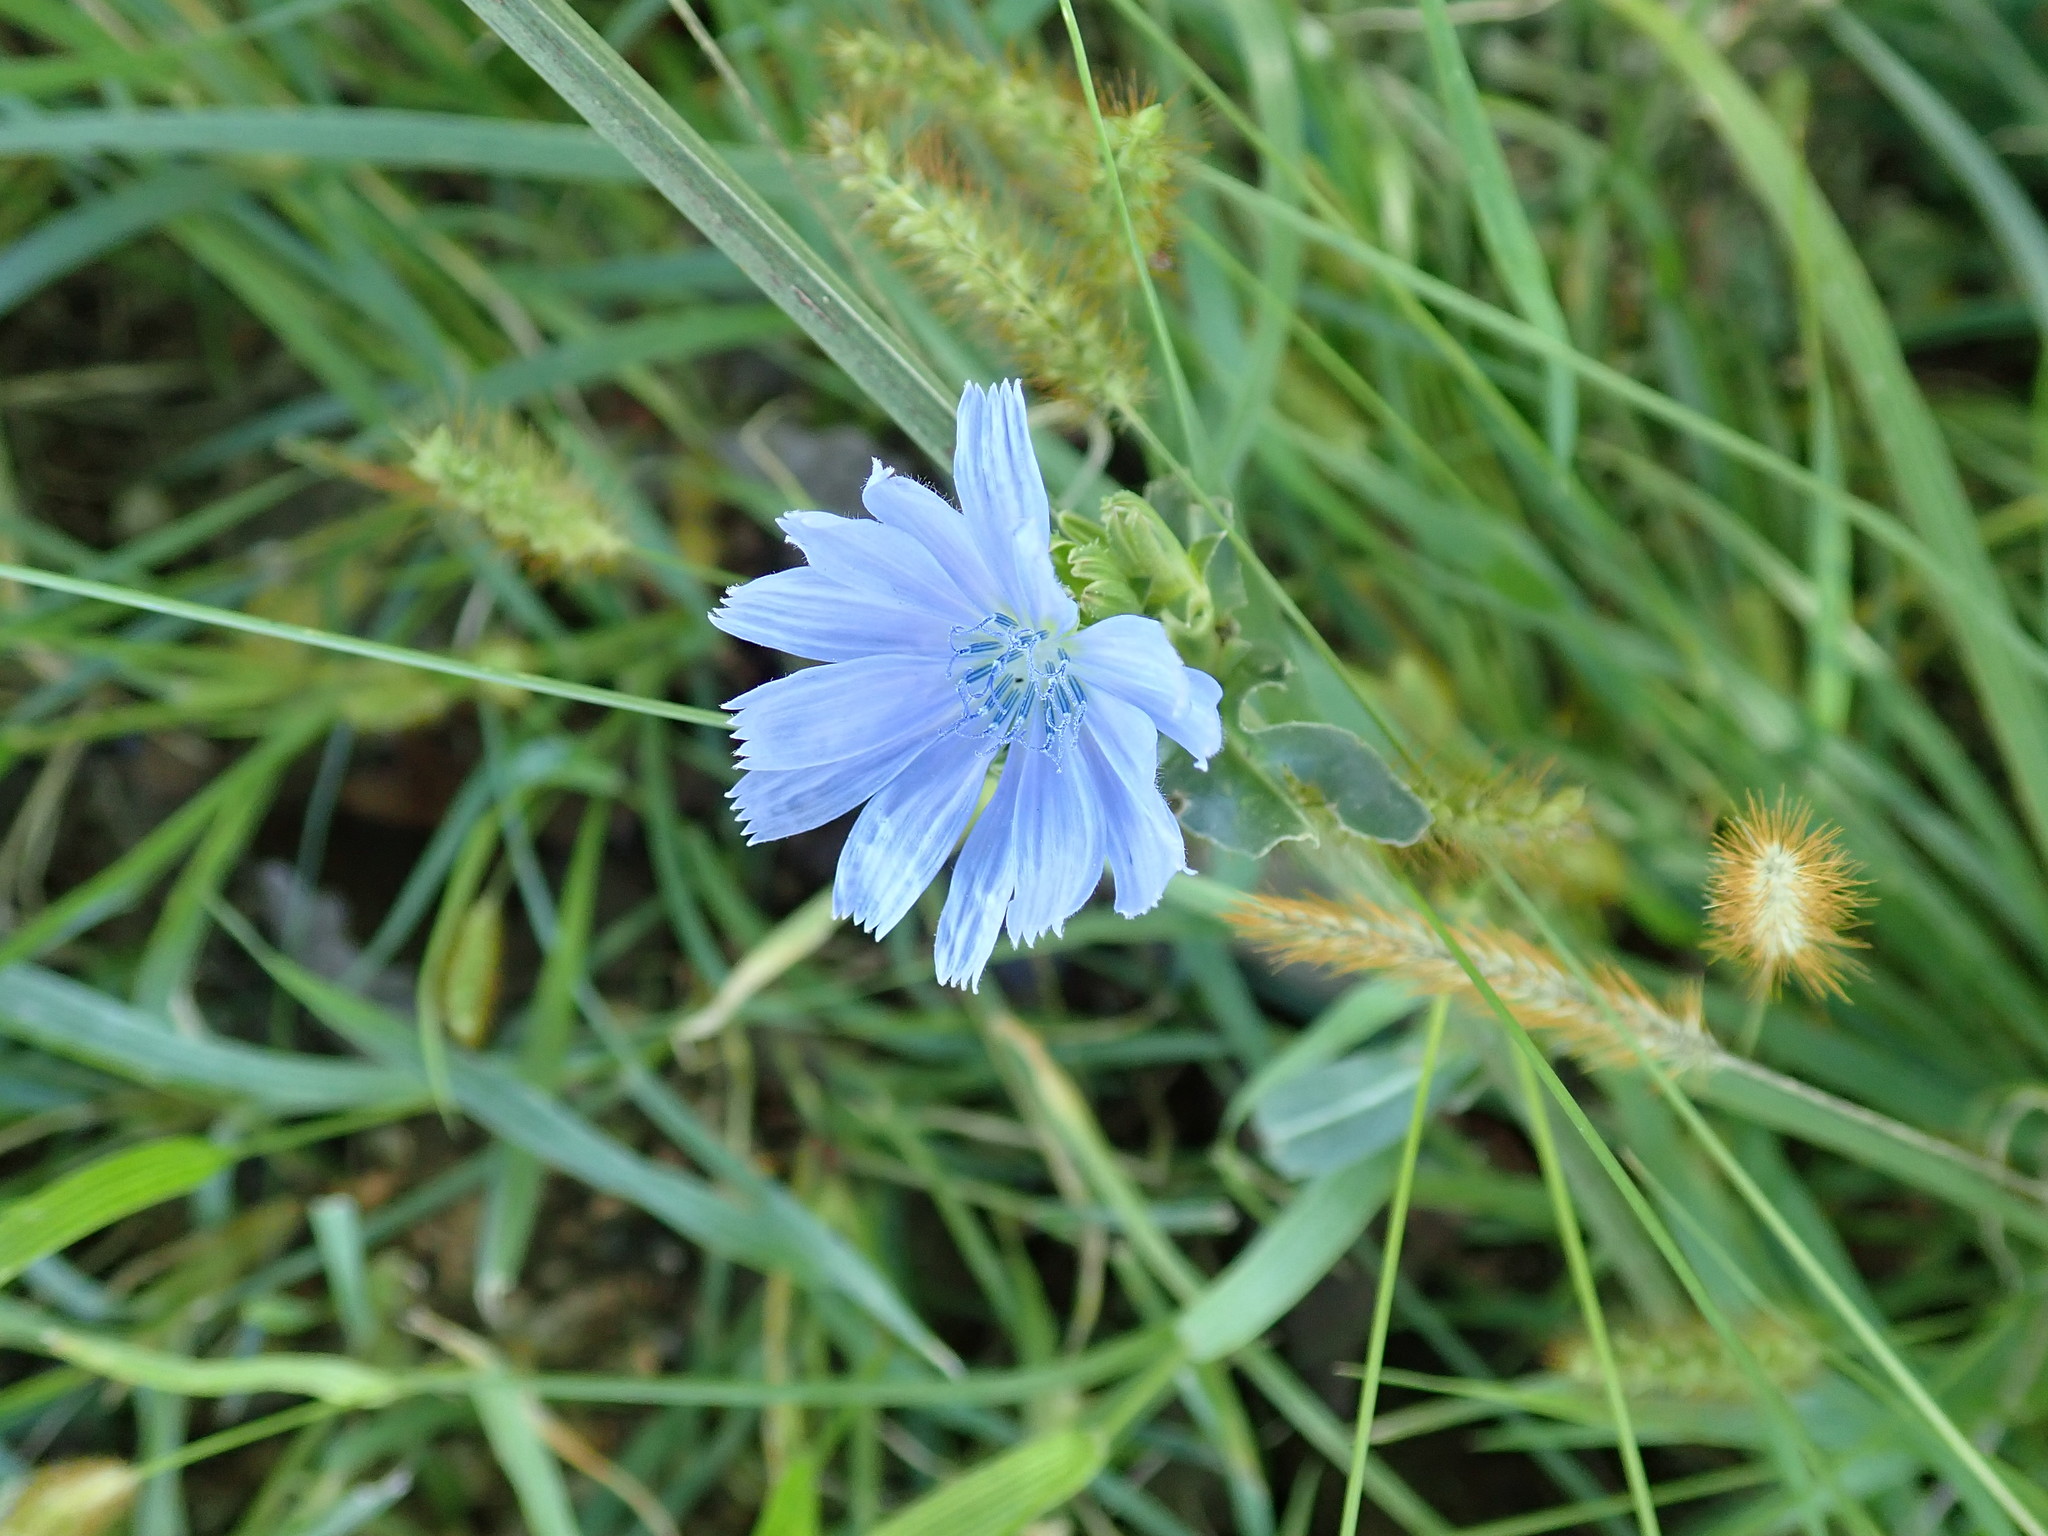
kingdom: Plantae
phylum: Tracheophyta
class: Magnoliopsida
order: Asterales
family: Asteraceae
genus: Cichorium
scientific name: Cichorium intybus
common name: Chicory
